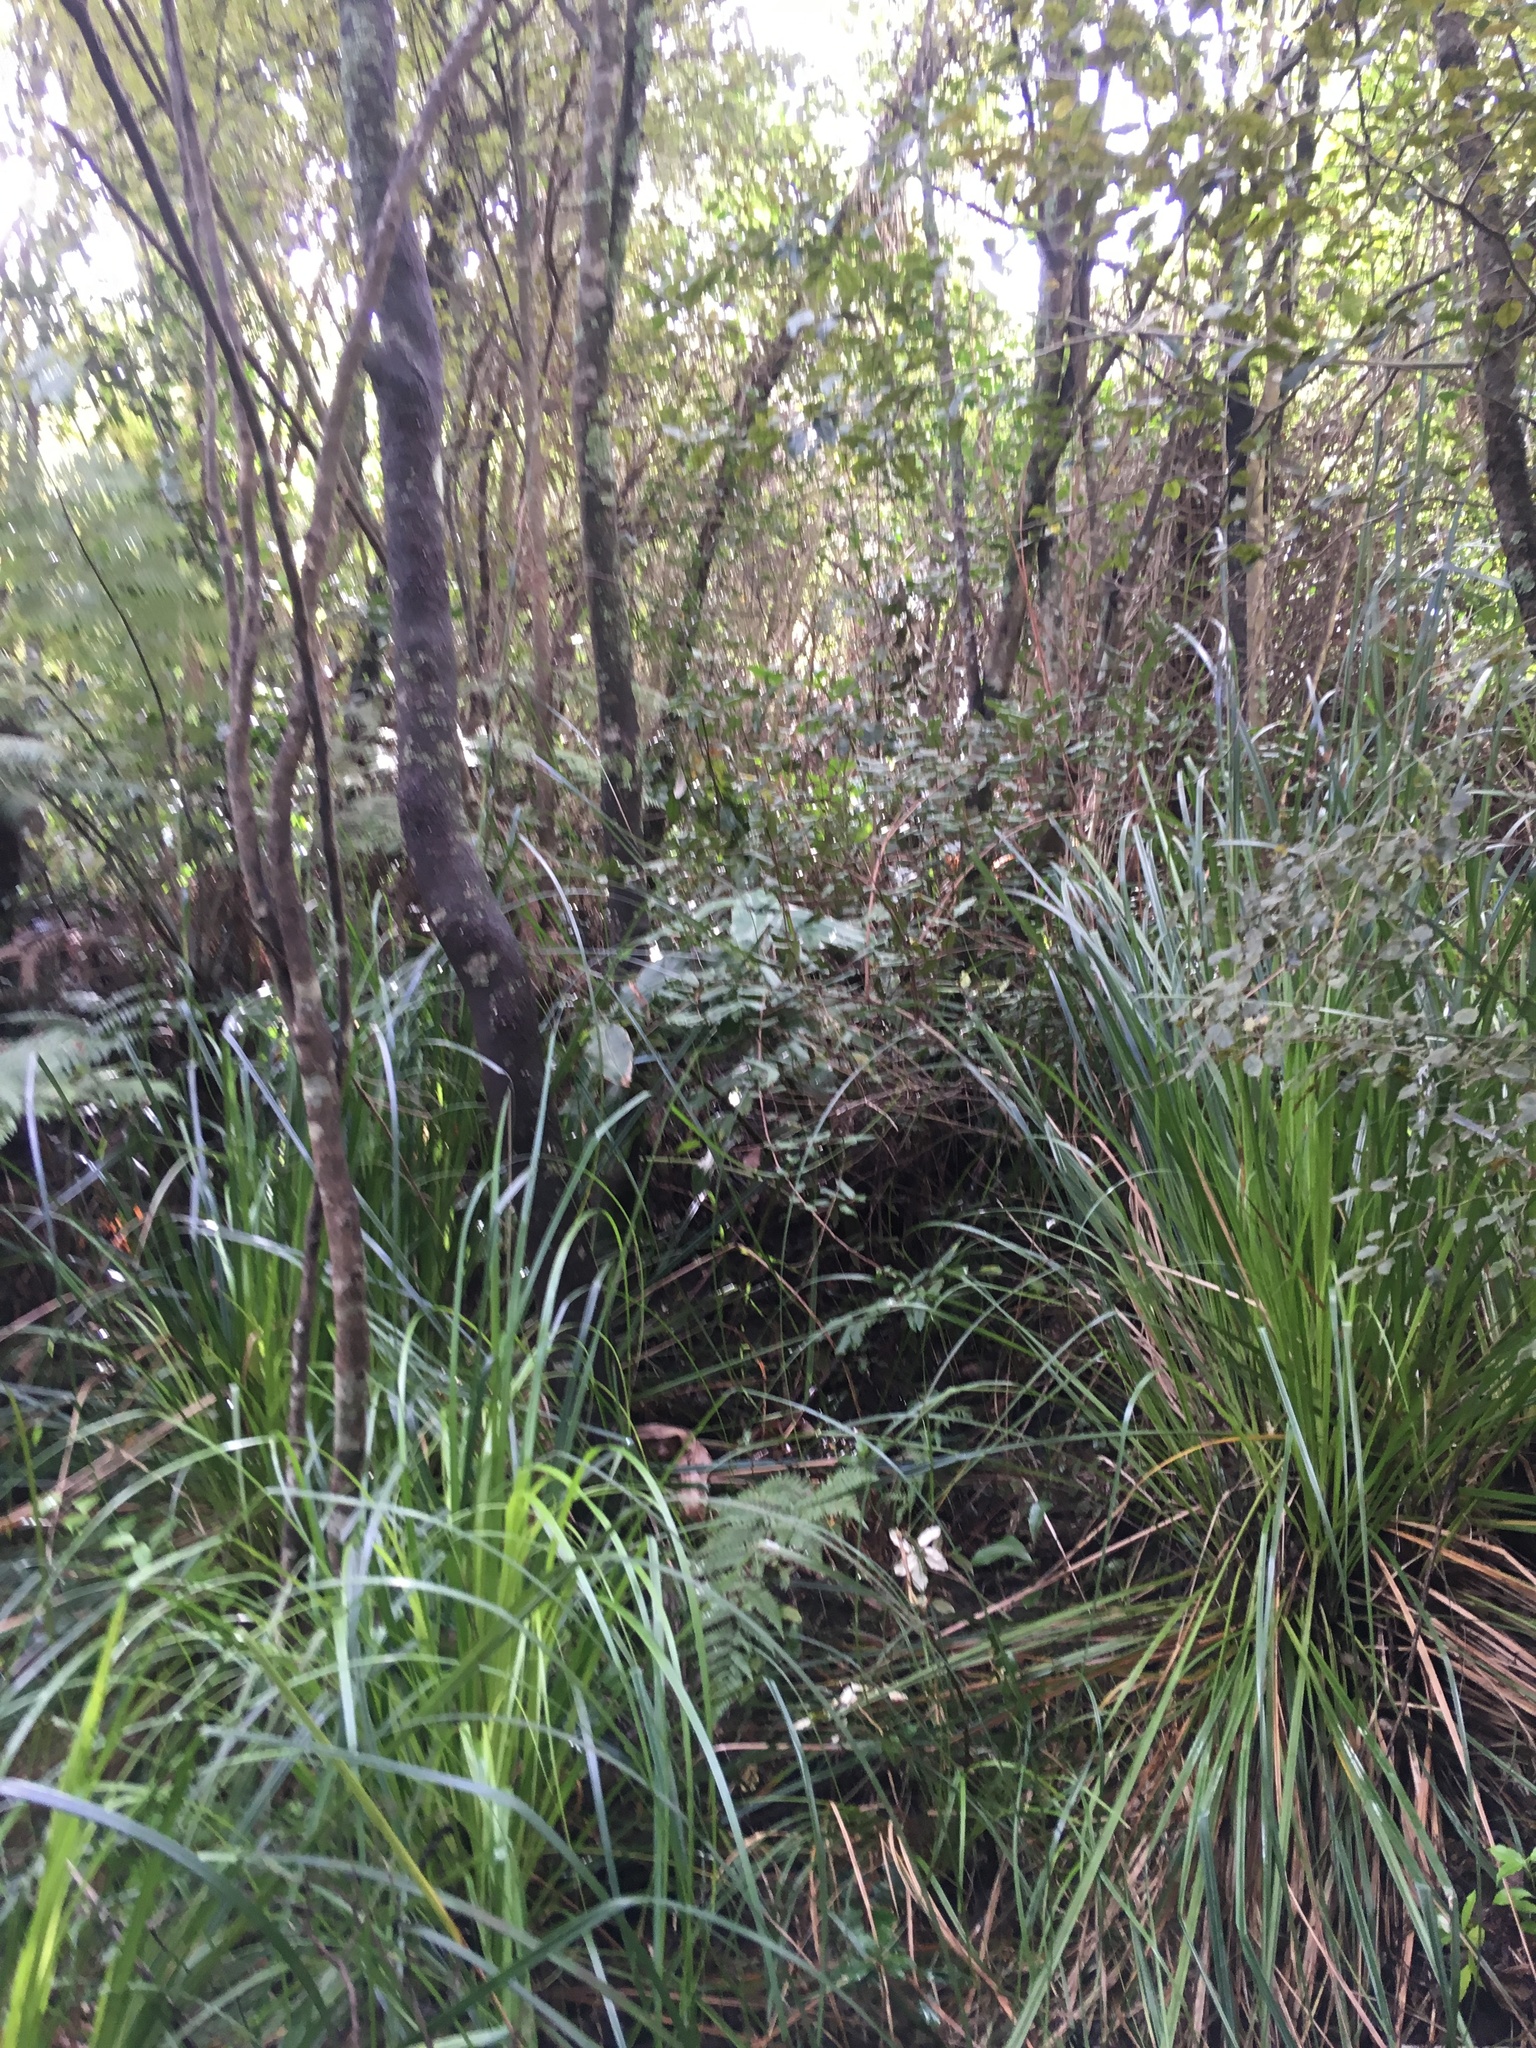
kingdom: Plantae
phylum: Tracheophyta
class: Liliopsida
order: Poales
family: Cyperaceae
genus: Gahnia
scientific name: Gahnia xanthocarpa
